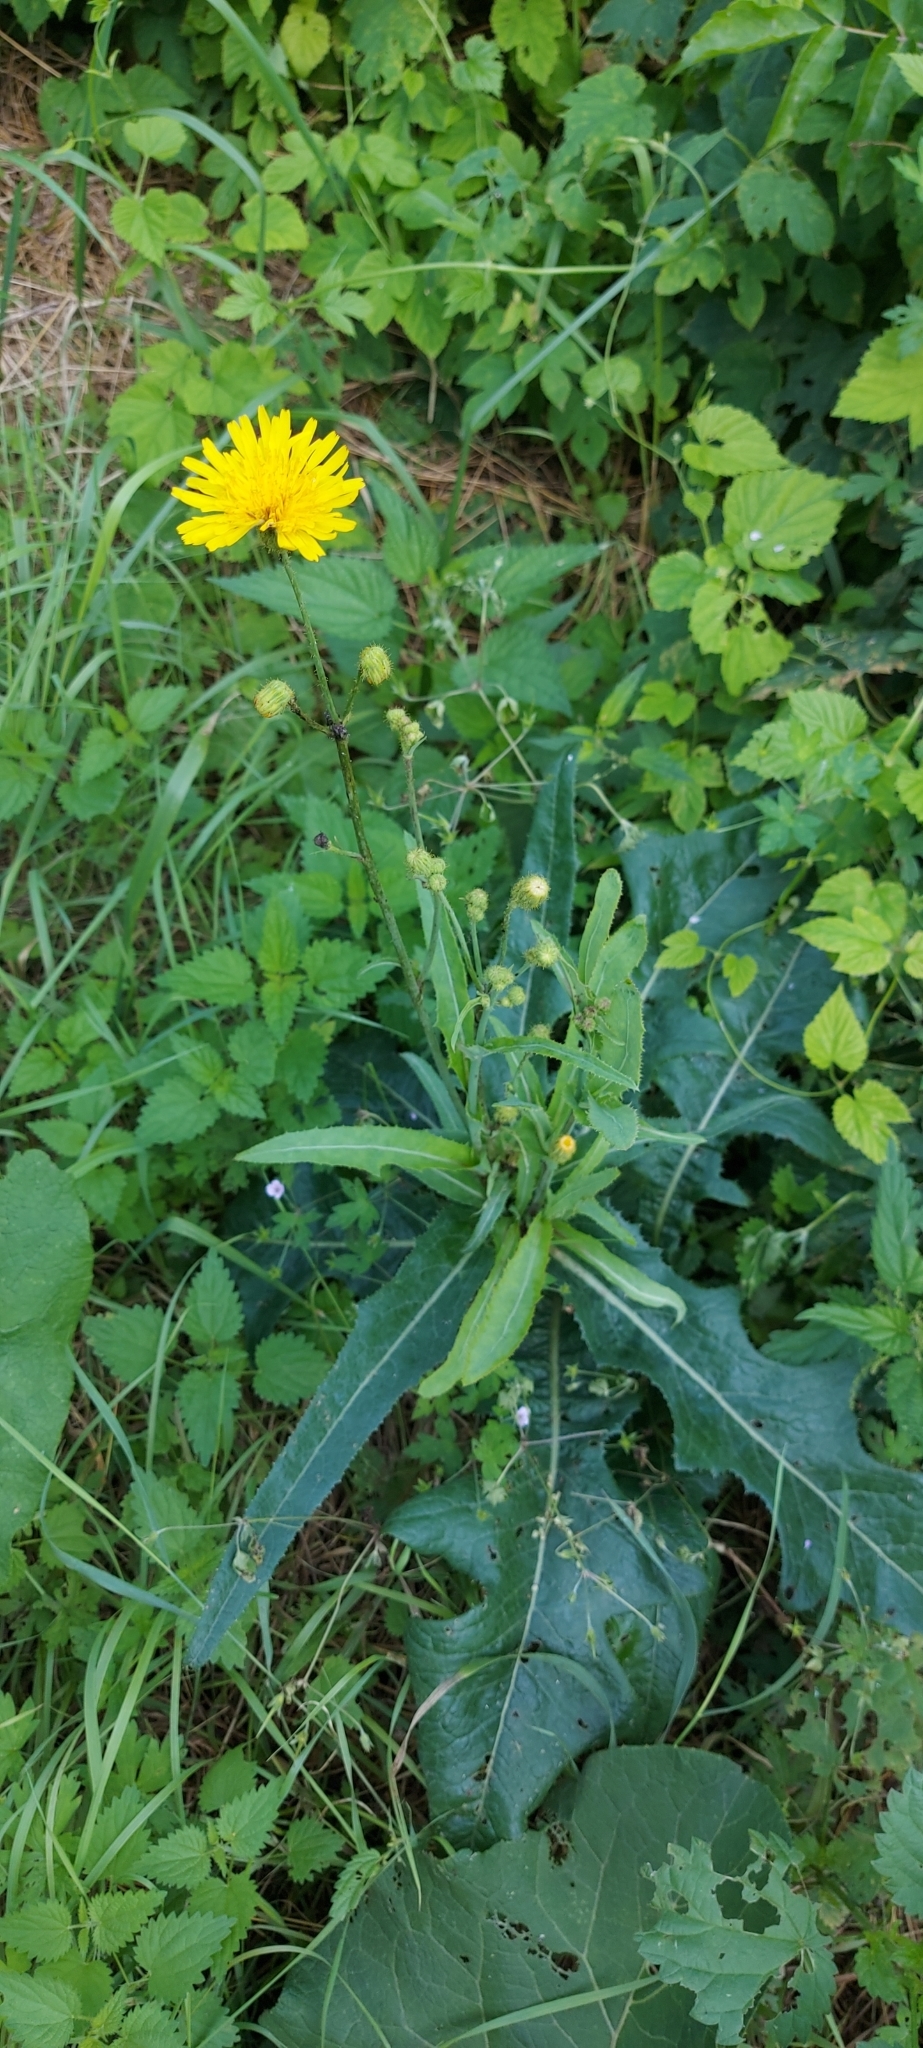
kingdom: Plantae
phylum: Tracheophyta
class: Magnoliopsida
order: Asterales
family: Asteraceae
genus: Sonchus
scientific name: Sonchus arvensis
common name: Perennial sow-thistle
